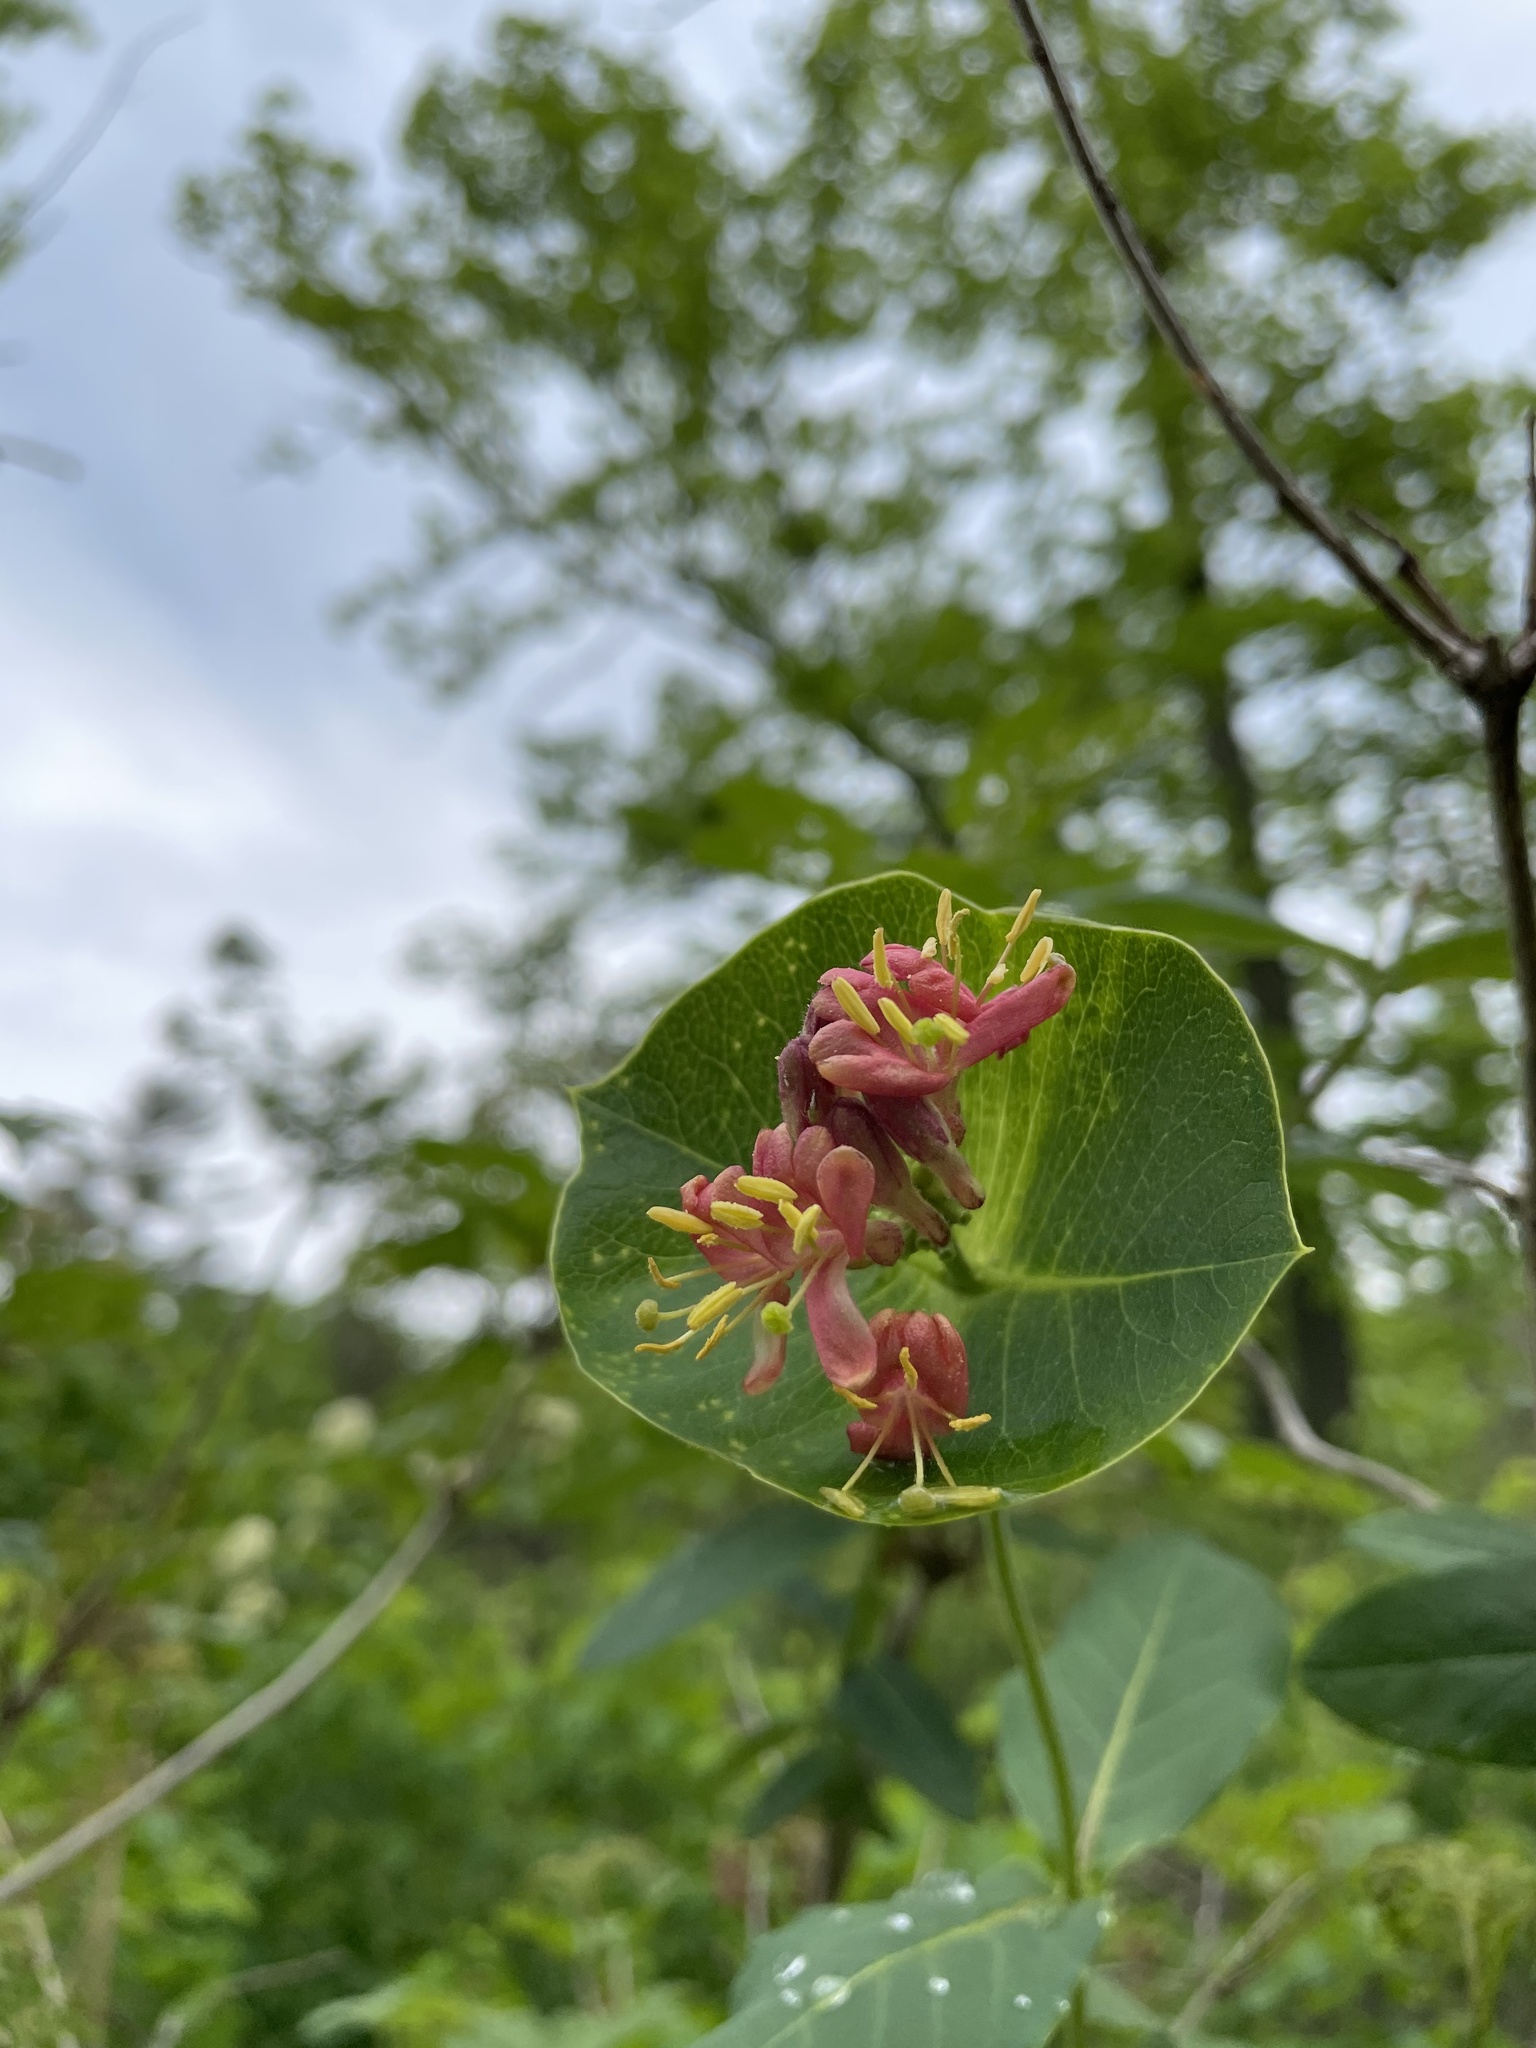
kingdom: Plantae
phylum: Tracheophyta
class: Magnoliopsida
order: Dipsacales
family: Caprifoliaceae
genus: Lonicera
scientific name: Lonicera dioica
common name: Limber honeysuckle
